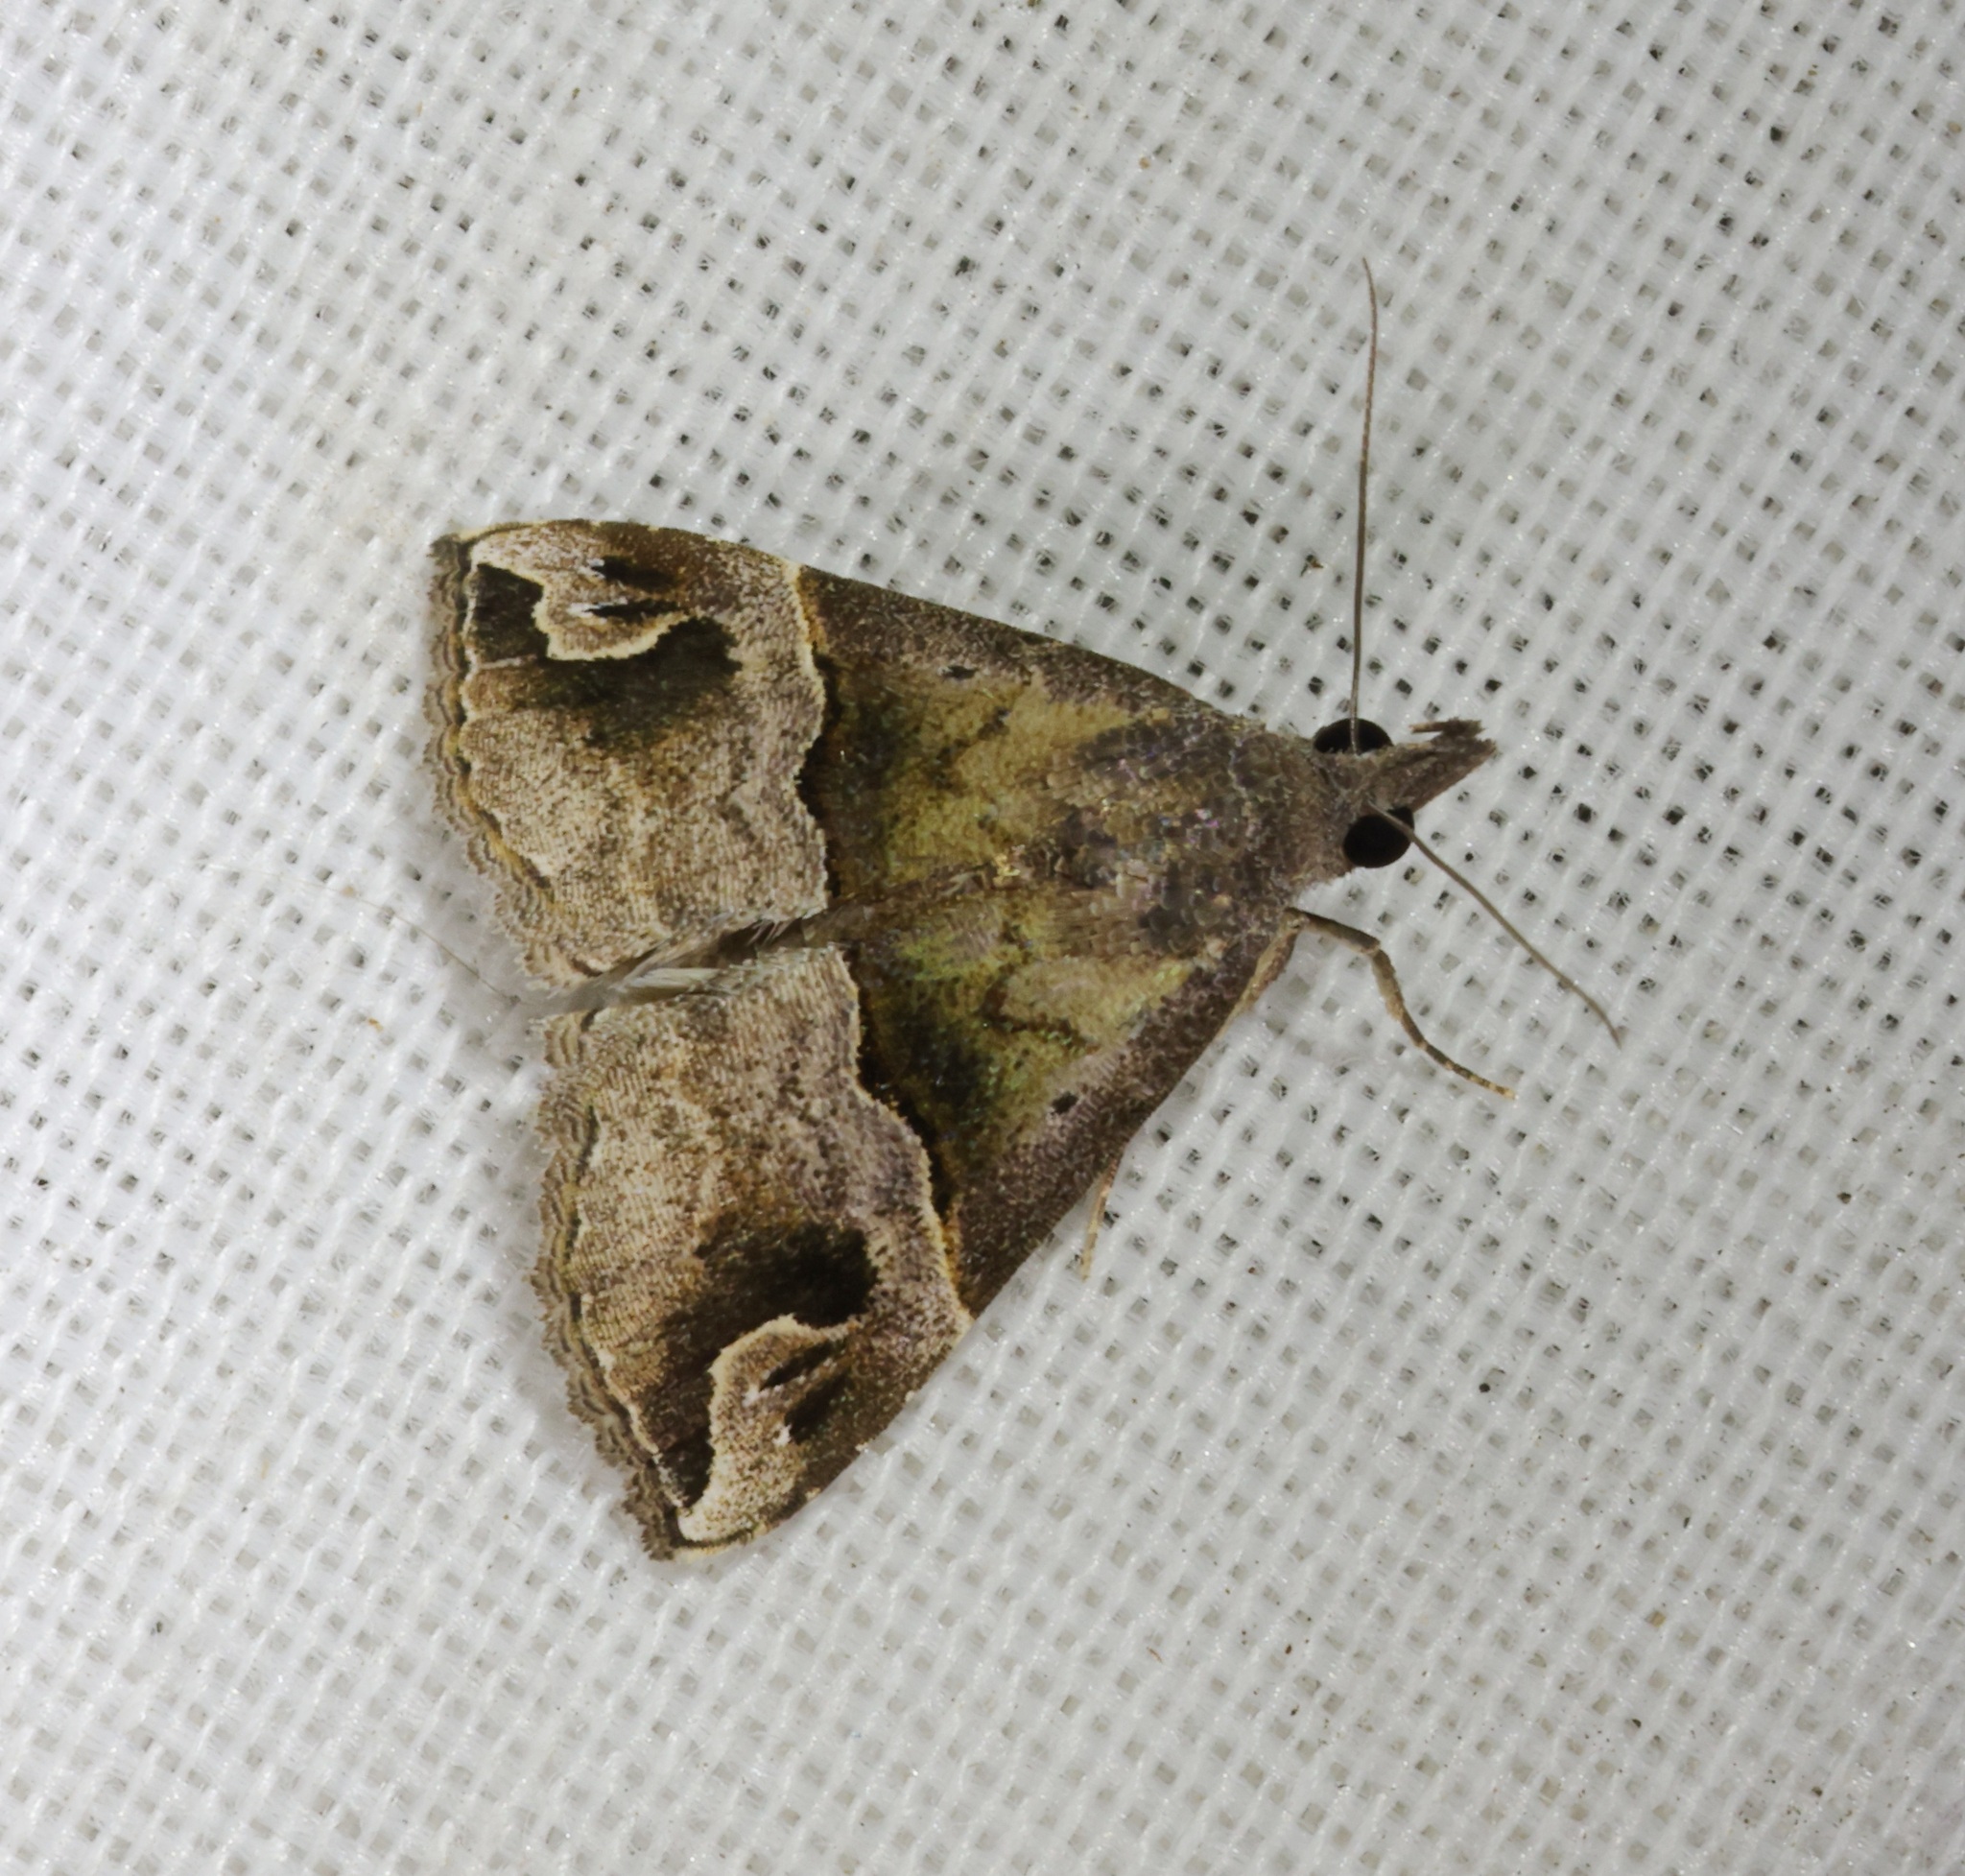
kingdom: Animalia
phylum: Arthropoda
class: Insecta
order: Lepidoptera
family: Erebidae
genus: Hypena
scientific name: Hypena Dichromia indicatalis
